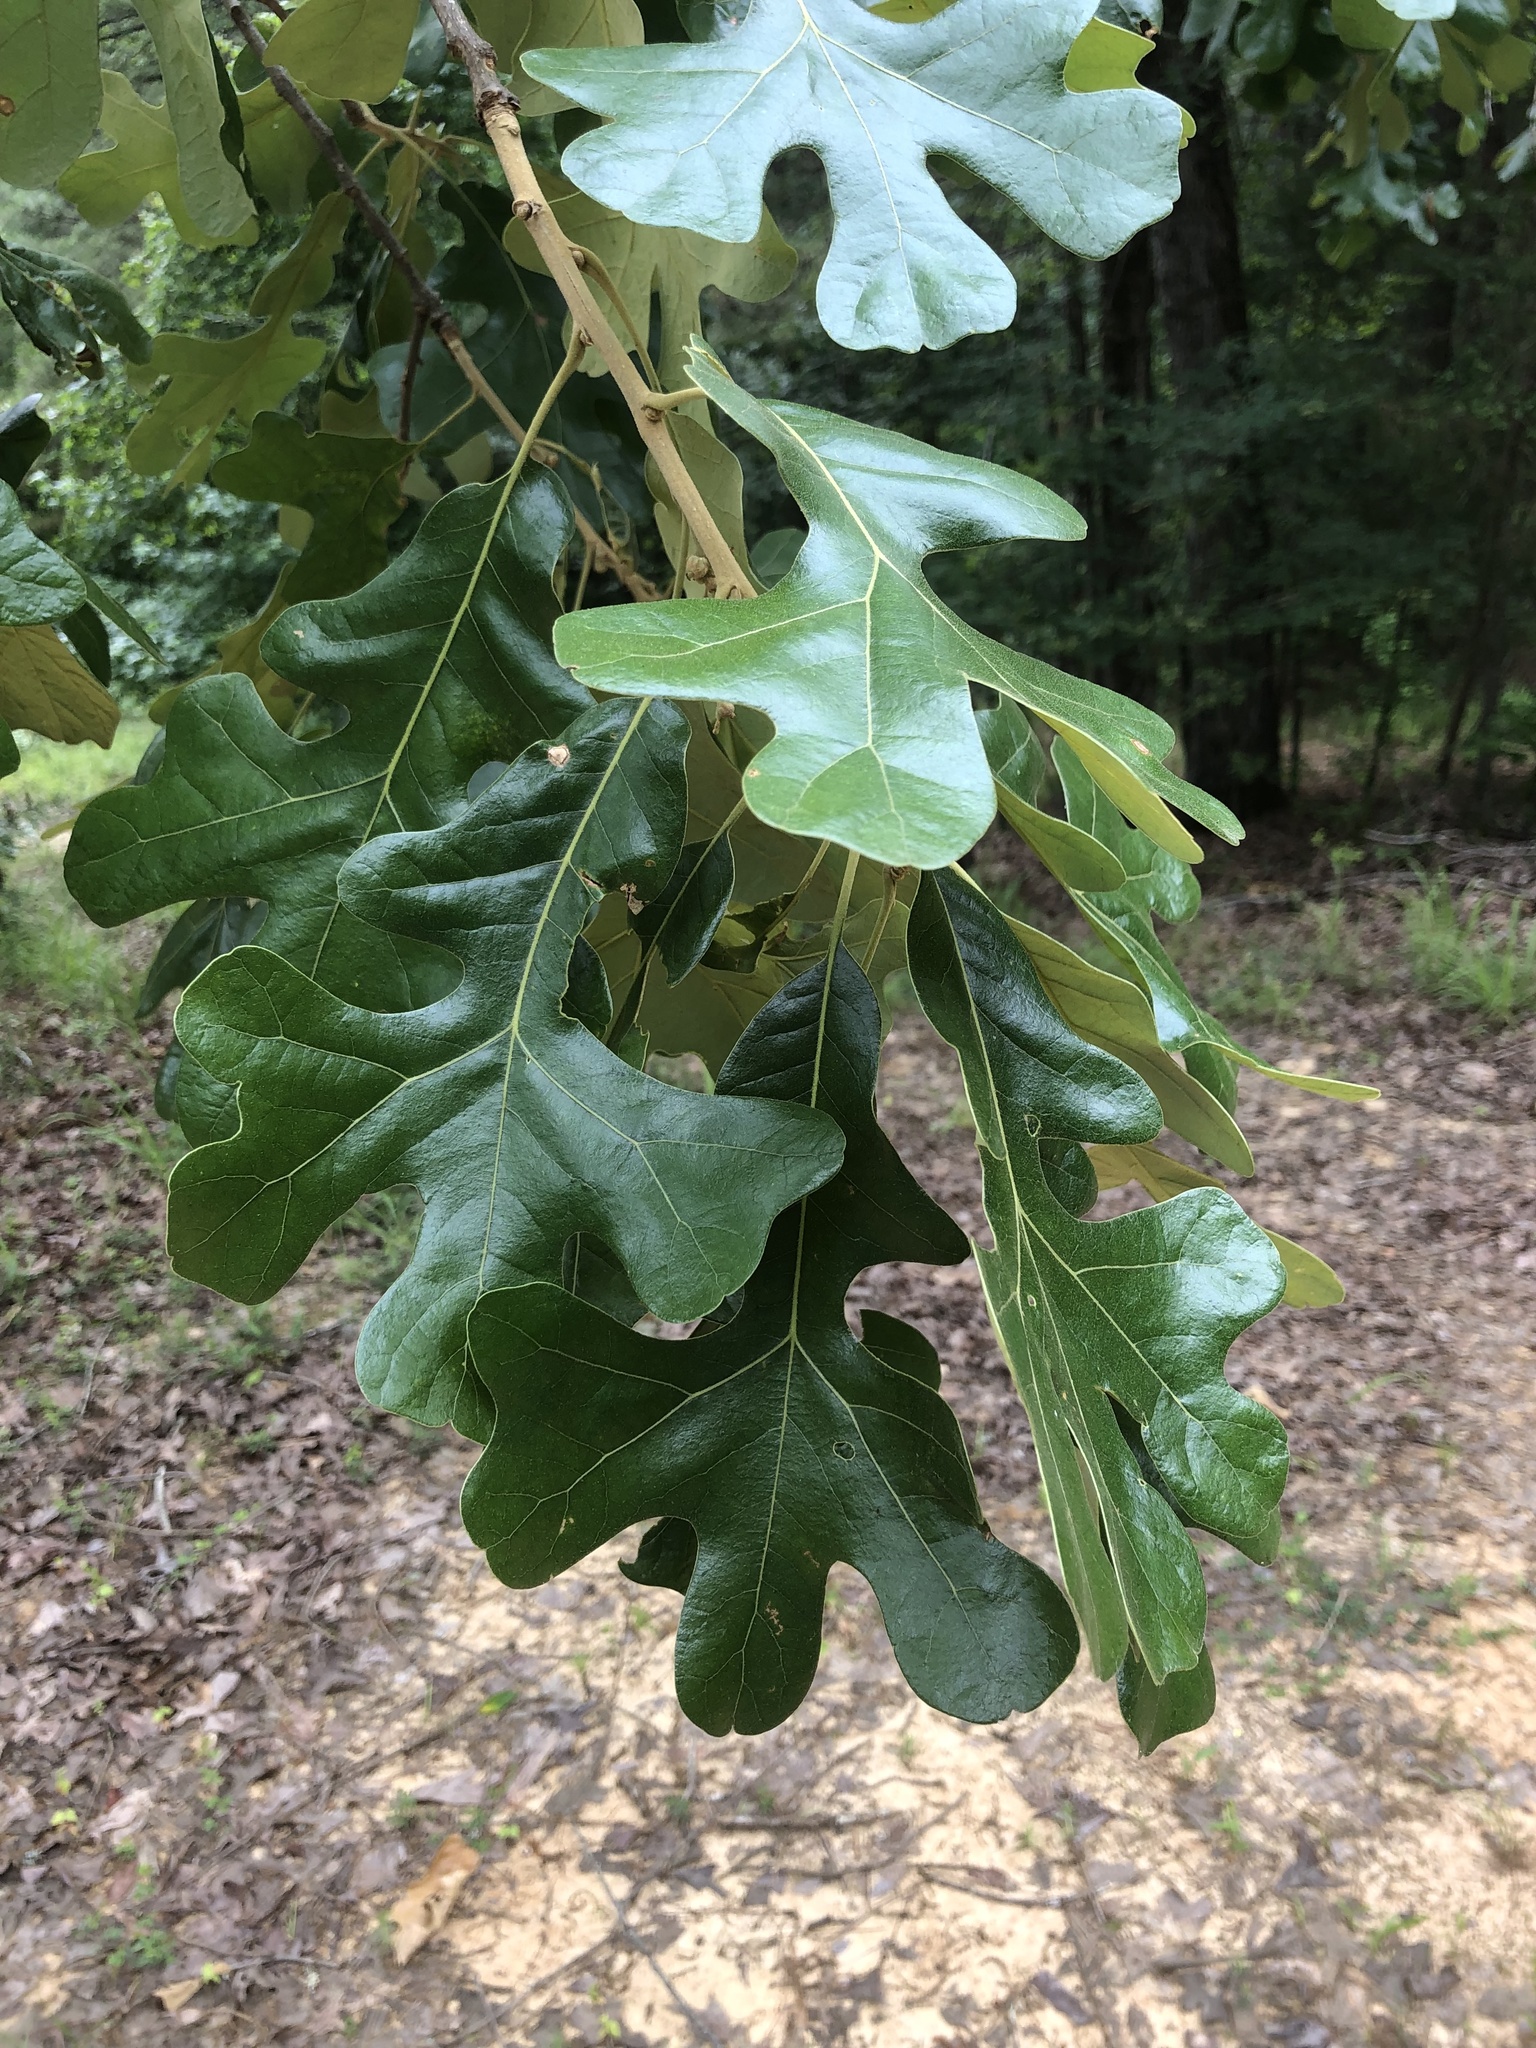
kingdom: Plantae
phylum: Tracheophyta
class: Magnoliopsida
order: Fagales
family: Fagaceae
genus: Quercus
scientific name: Quercus stellata
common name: Post oak
